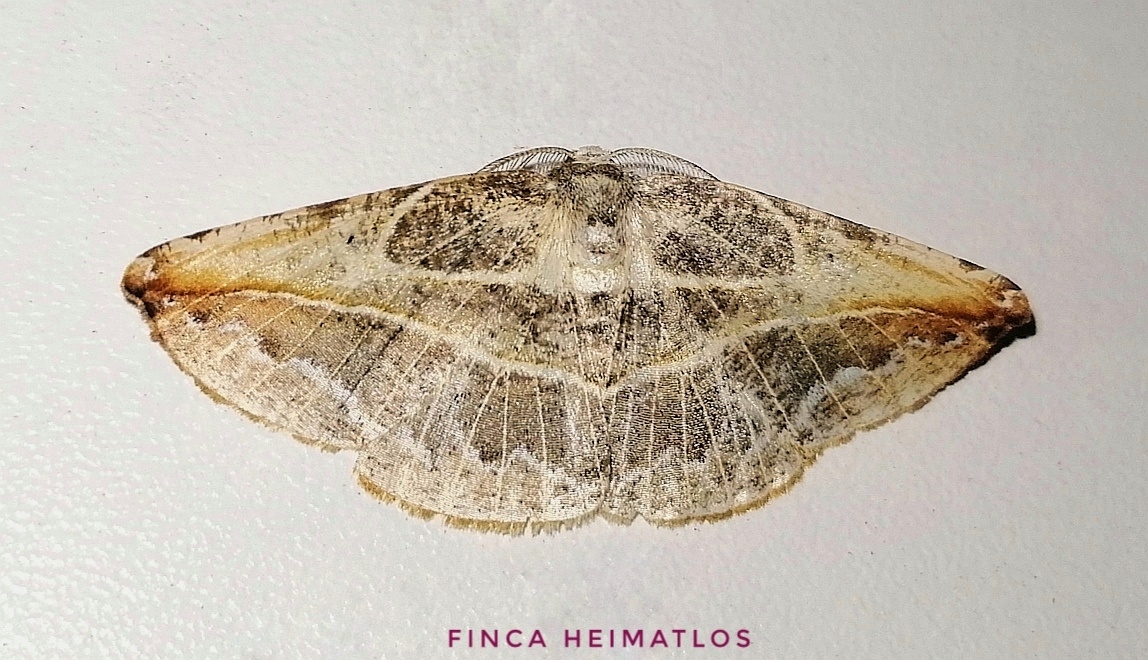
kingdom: Animalia
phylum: Arthropoda
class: Insecta
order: Lepidoptera
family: Geometridae
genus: Eusarca
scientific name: Eusarca minucia
